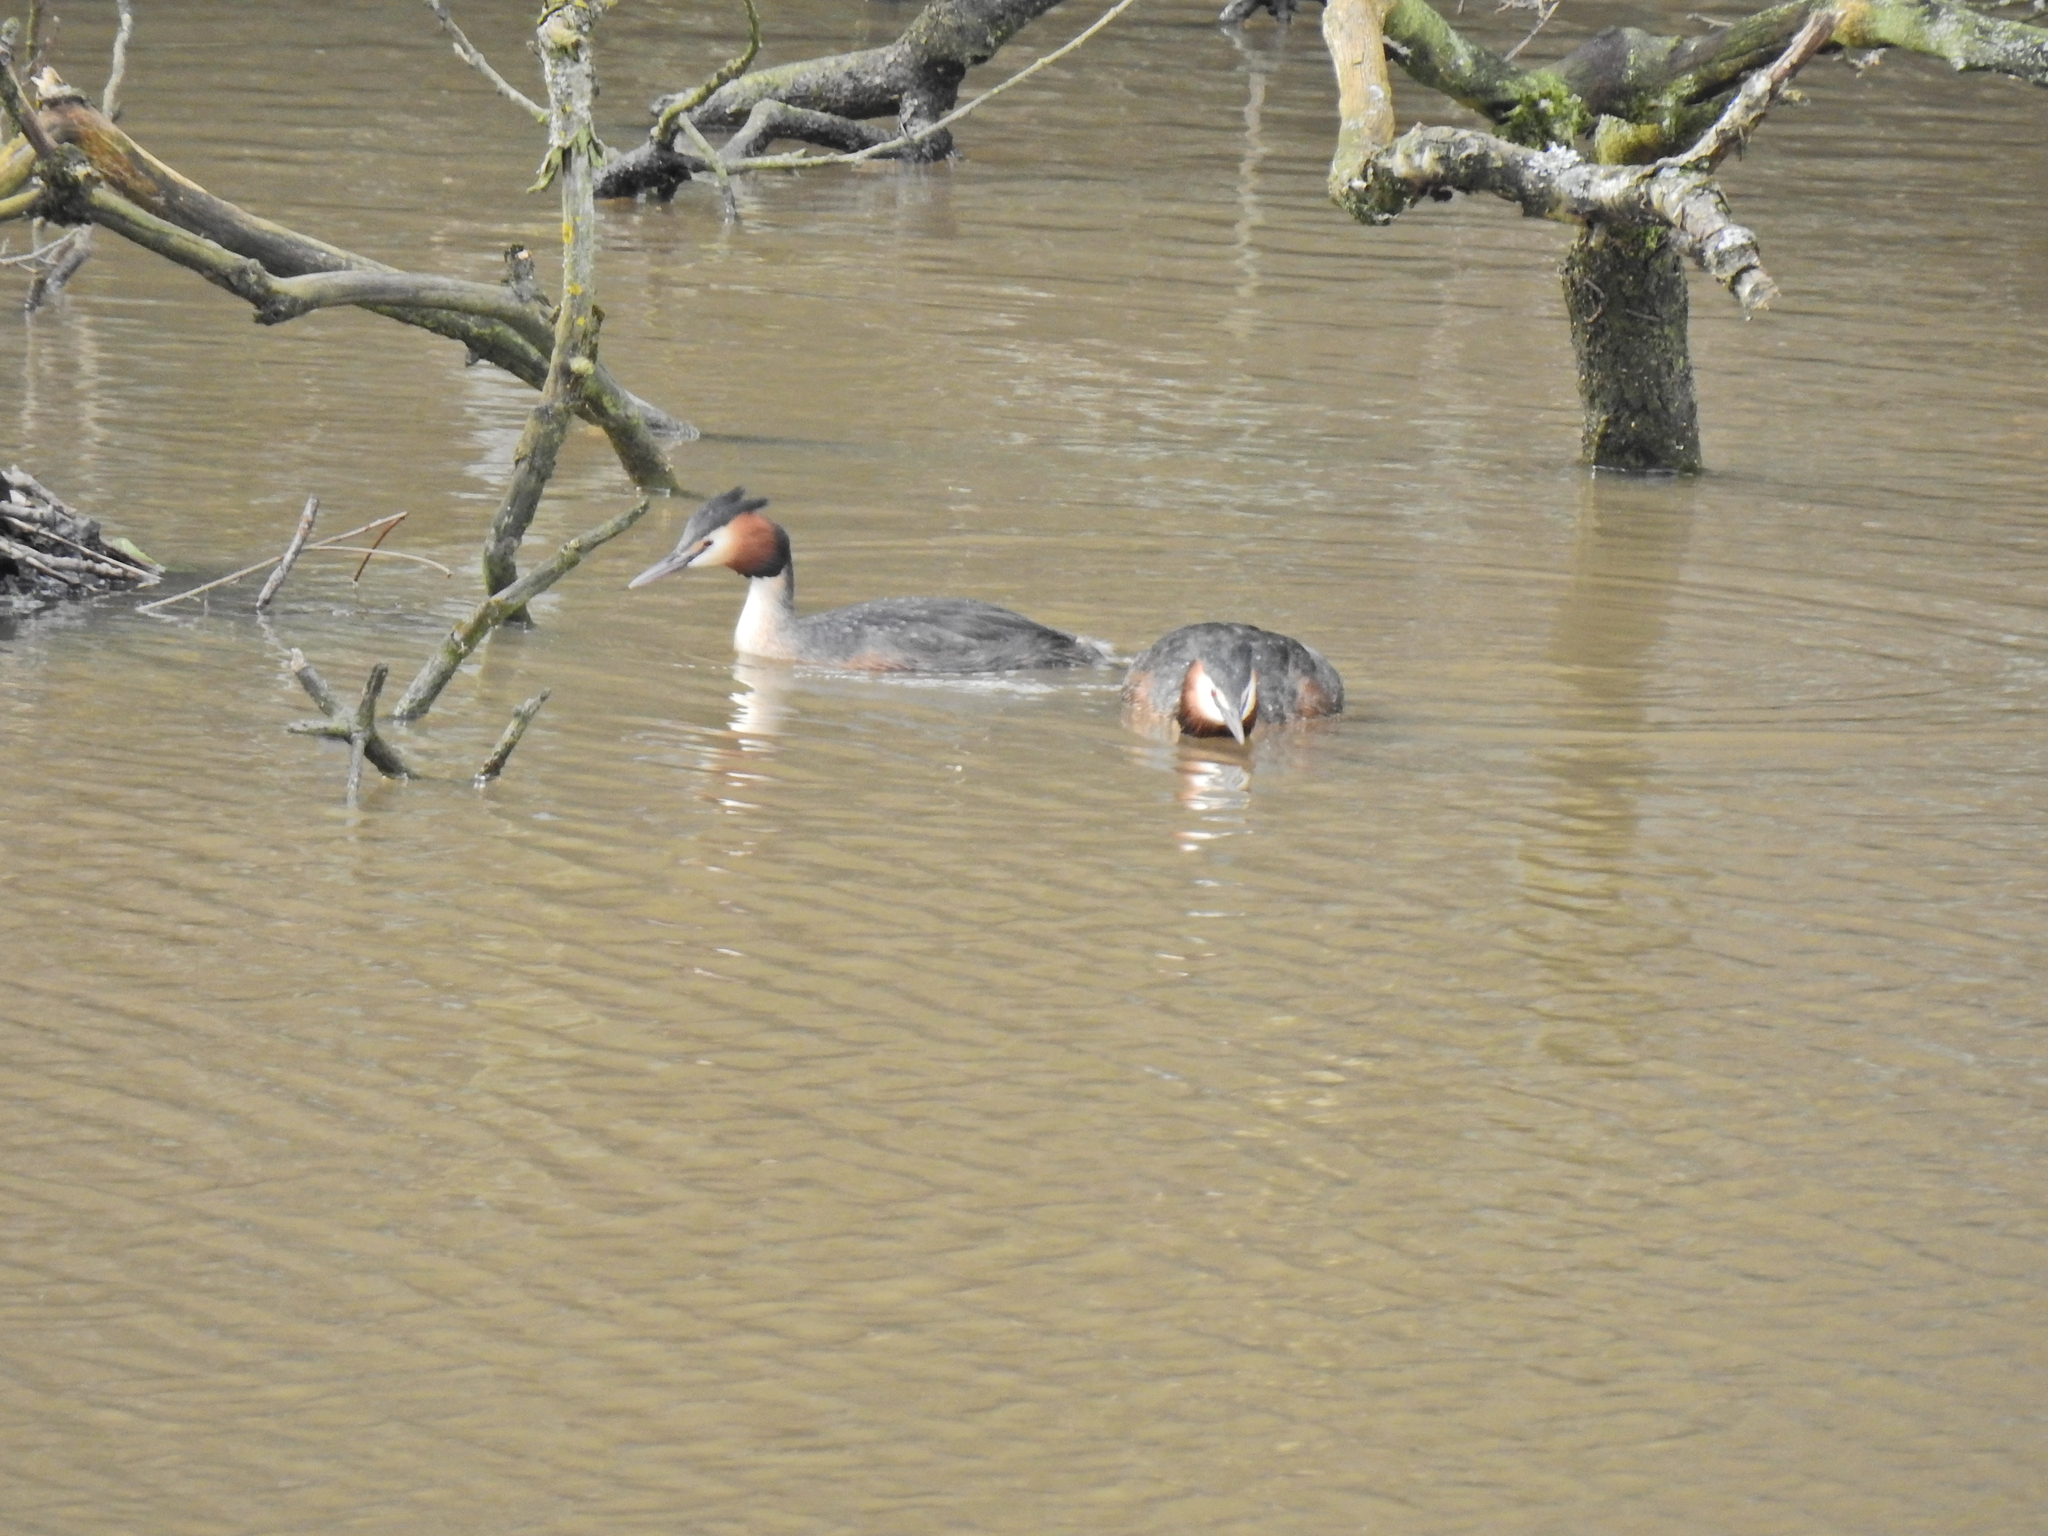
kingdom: Animalia
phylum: Chordata
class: Aves
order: Podicipediformes
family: Podicipedidae
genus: Podiceps
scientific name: Podiceps cristatus
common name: Great crested grebe
